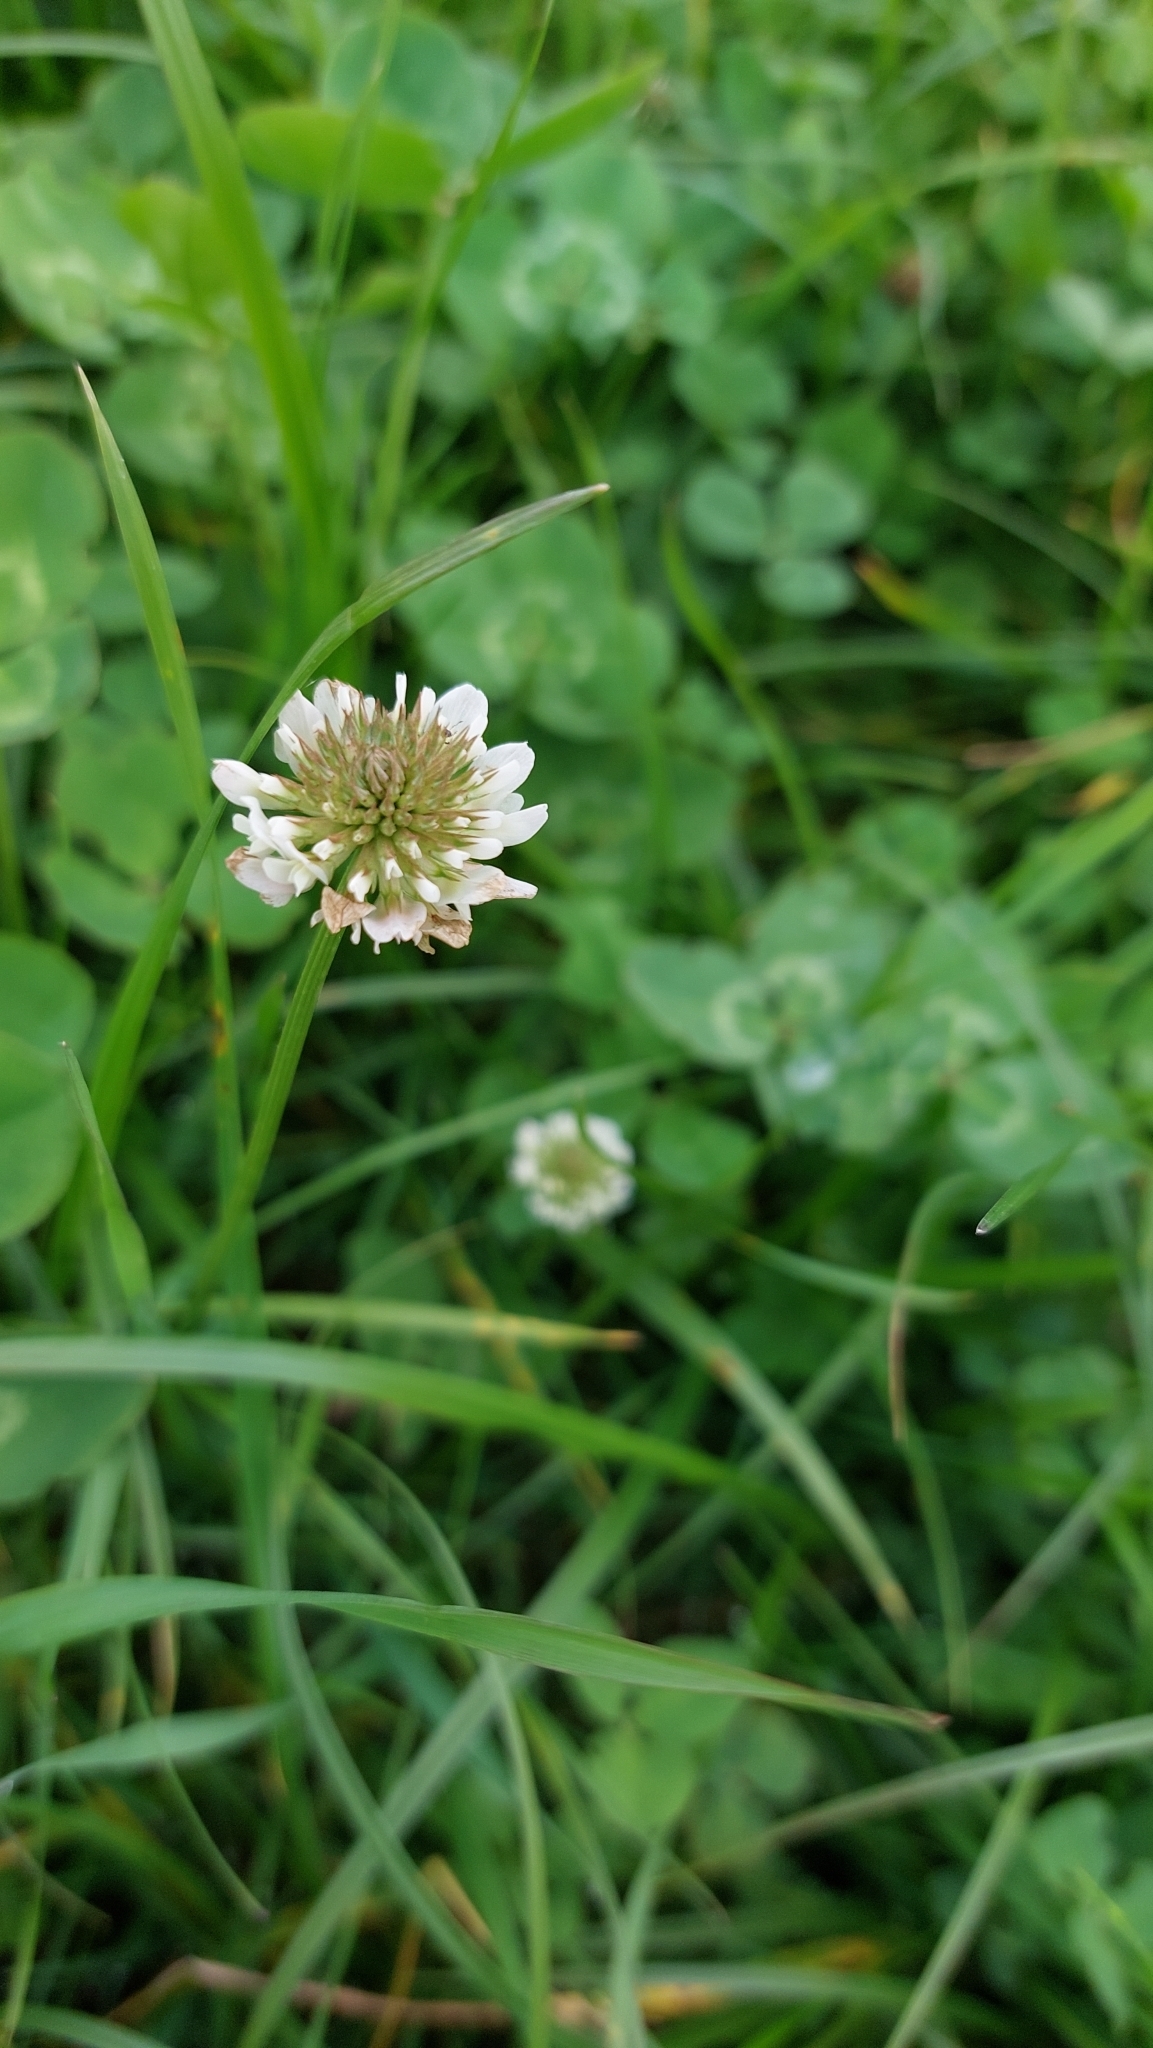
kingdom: Plantae
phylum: Tracheophyta
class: Magnoliopsida
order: Fabales
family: Fabaceae
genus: Trifolium
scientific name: Trifolium repens
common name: White clover
